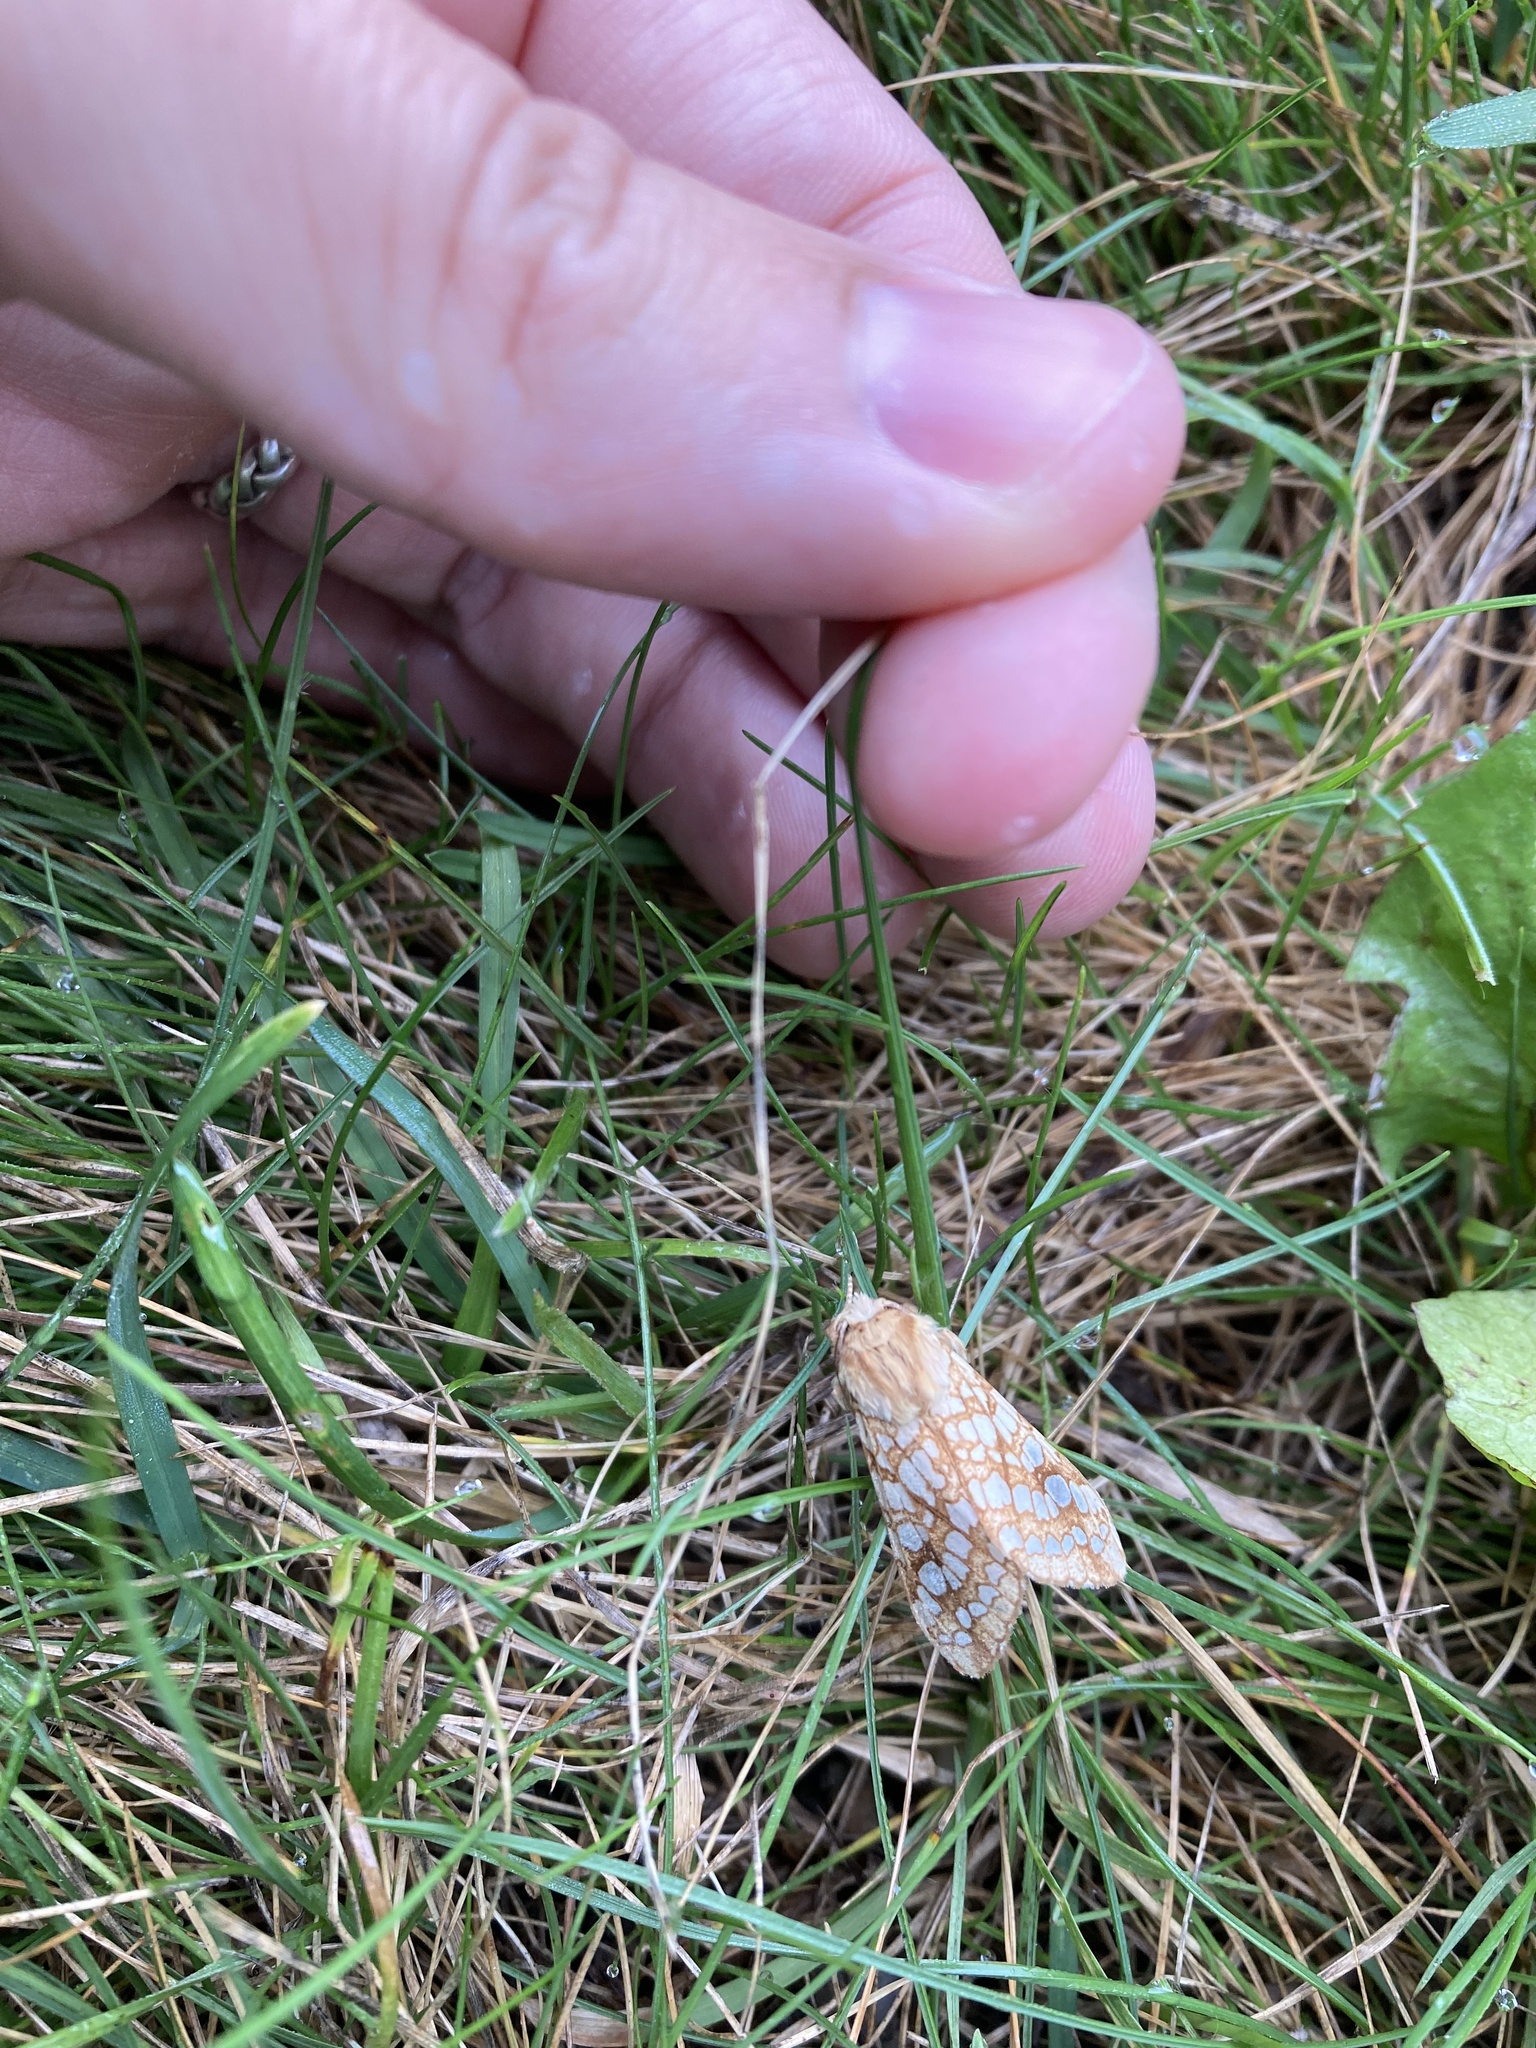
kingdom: Animalia
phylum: Arthropoda
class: Insecta
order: Lepidoptera
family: Erebidae
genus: Lophocampa
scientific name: Lophocampa caryae
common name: Hickory tussock moth
